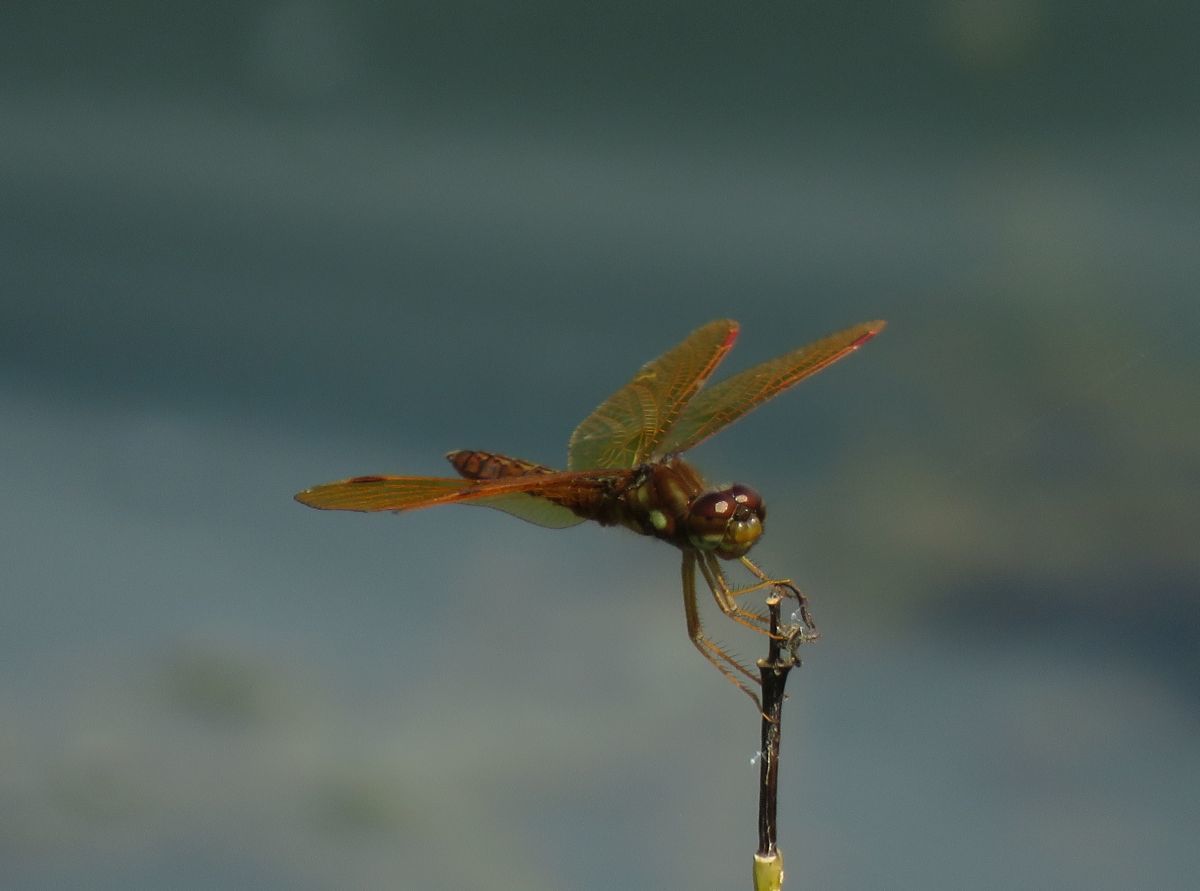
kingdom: Animalia
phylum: Arthropoda
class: Insecta
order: Odonata
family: Libellulidae
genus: Perithemis
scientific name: Perithemis tenera
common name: Eastern amberwing
